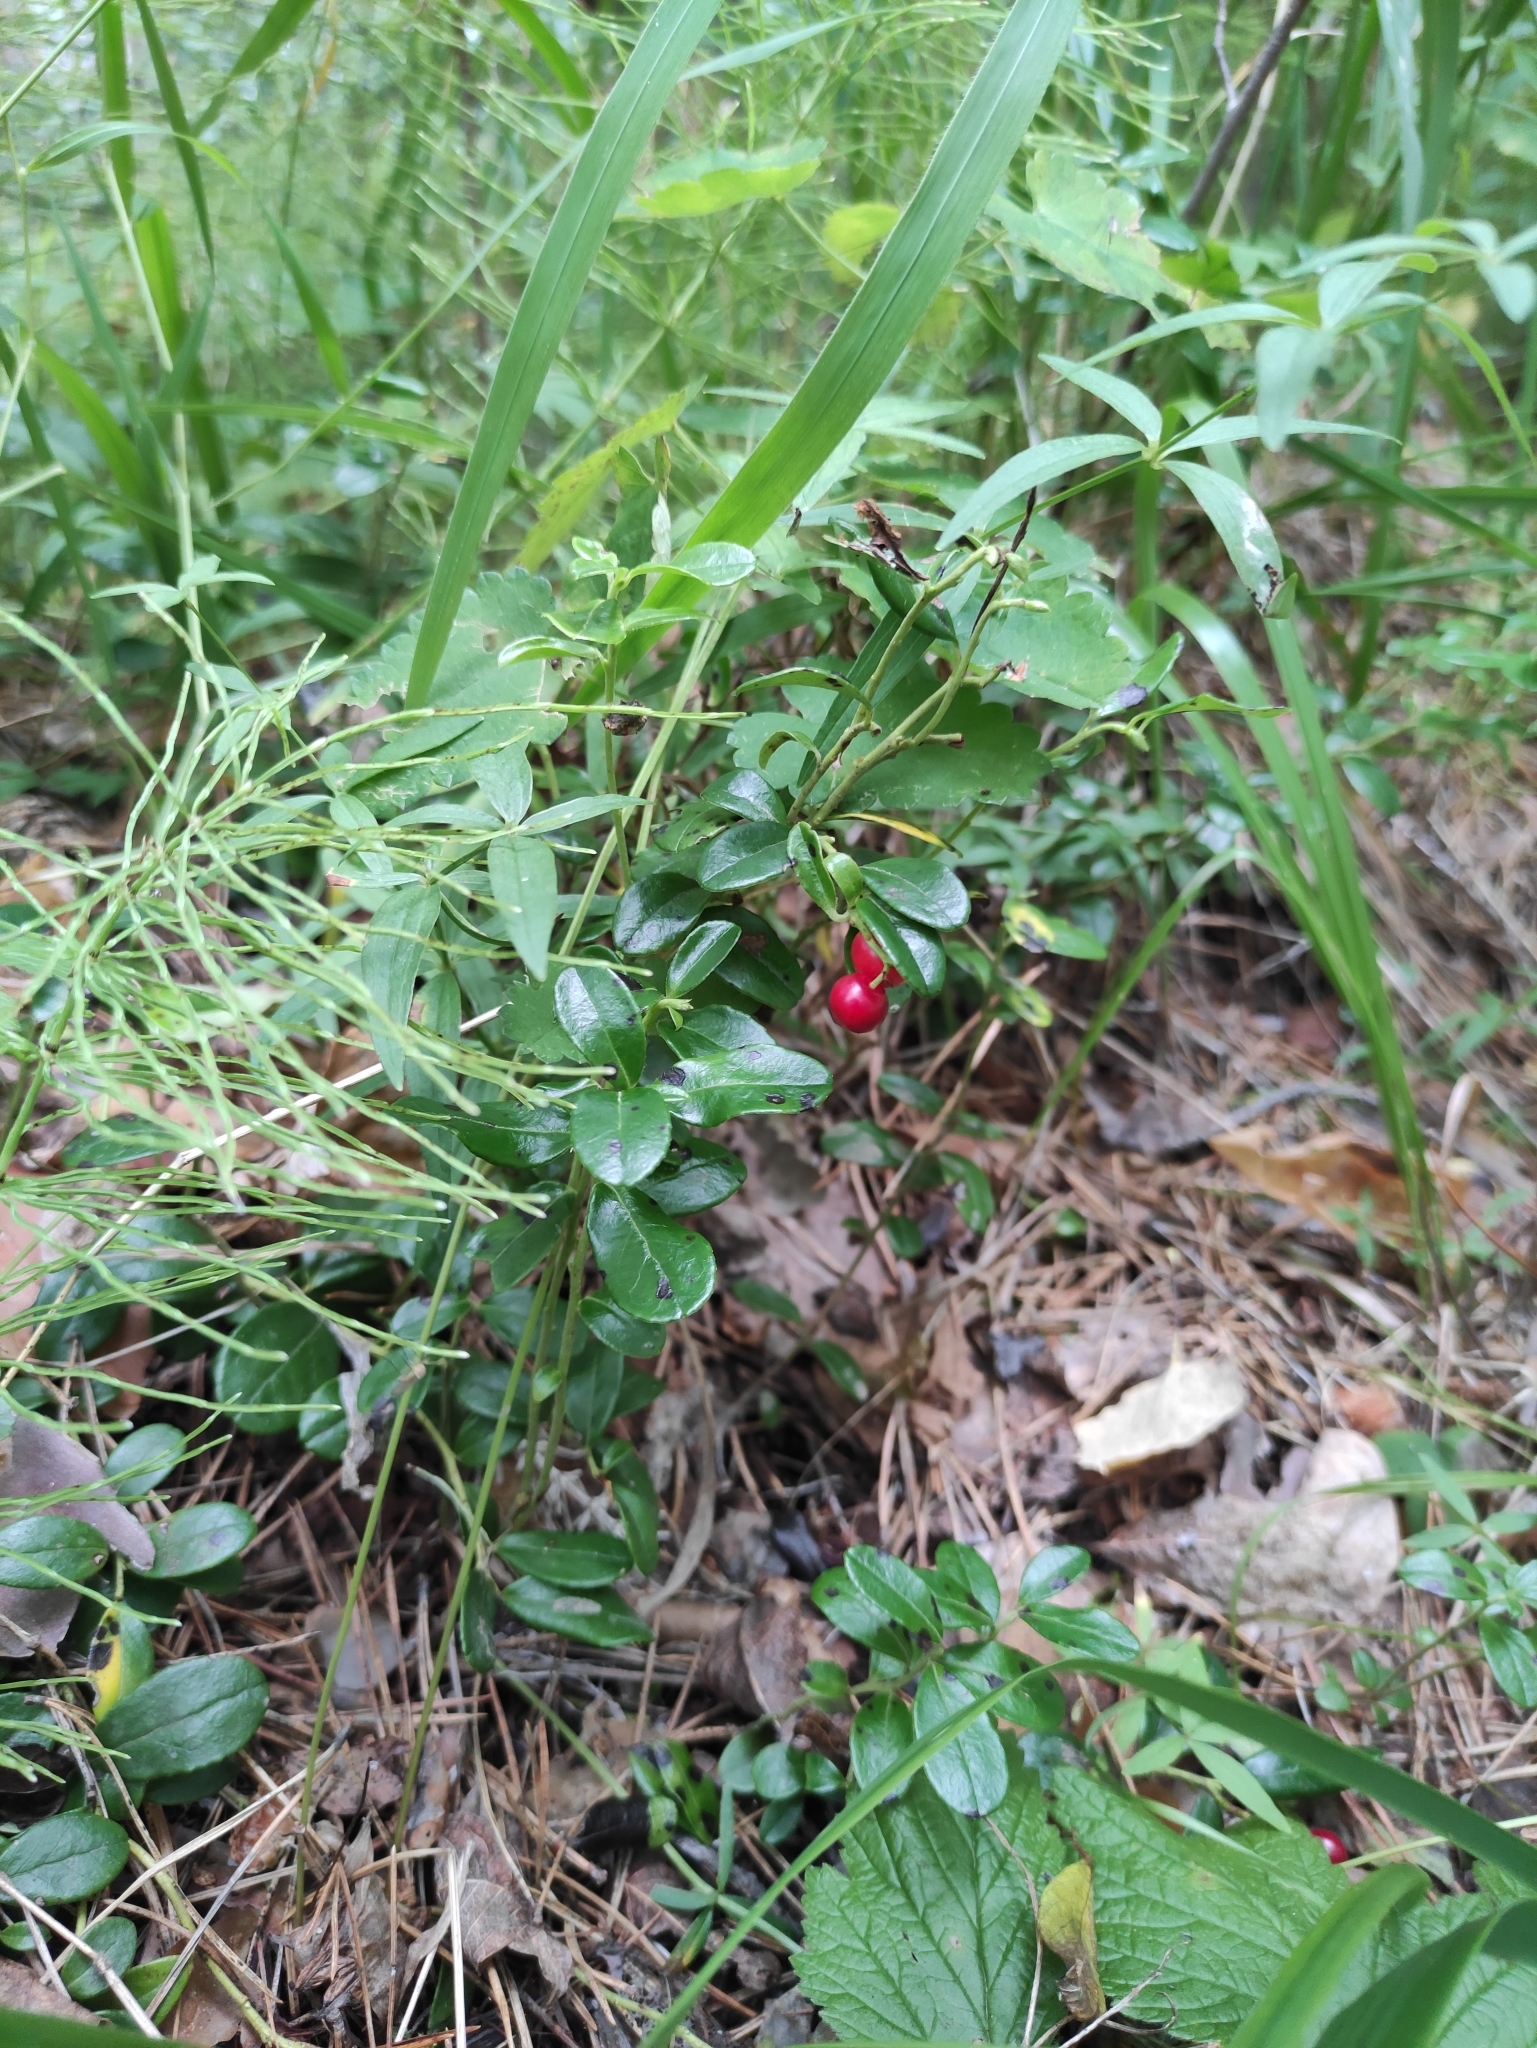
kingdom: Plantae
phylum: Tracheophyta
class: Magnoliopsida
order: Ericales
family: Ericaceae
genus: Vaccinium
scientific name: Vaccinium vitis-idaea
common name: Cowberry
